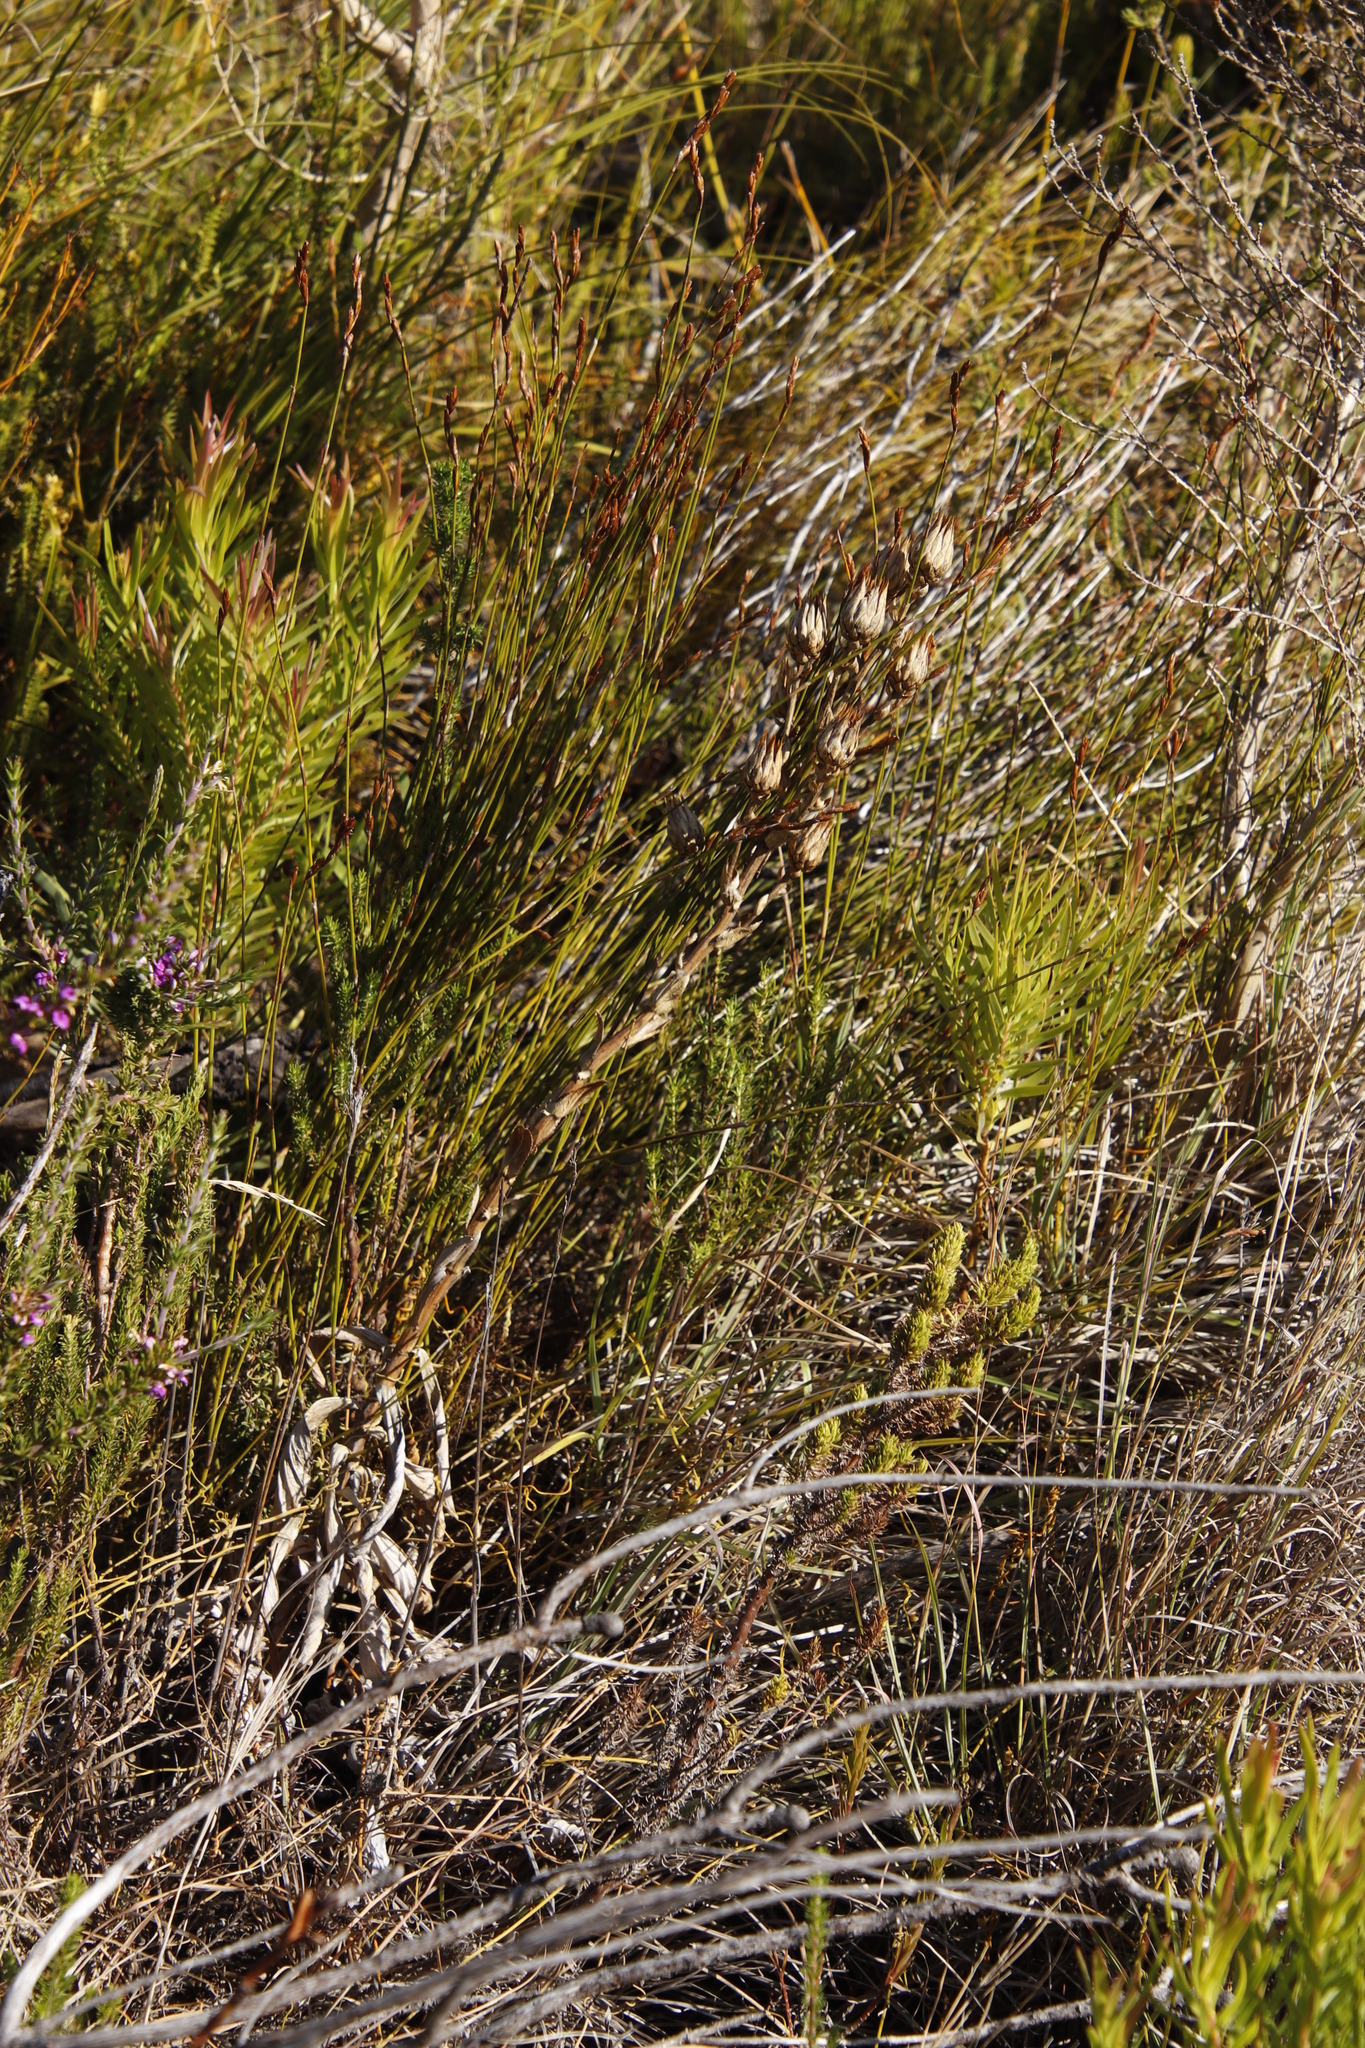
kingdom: Plantae
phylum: Tracheophyta
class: Magnoliopsida
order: Asterales
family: Asteraceae
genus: Berkheya
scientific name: Berkheya herbacea
